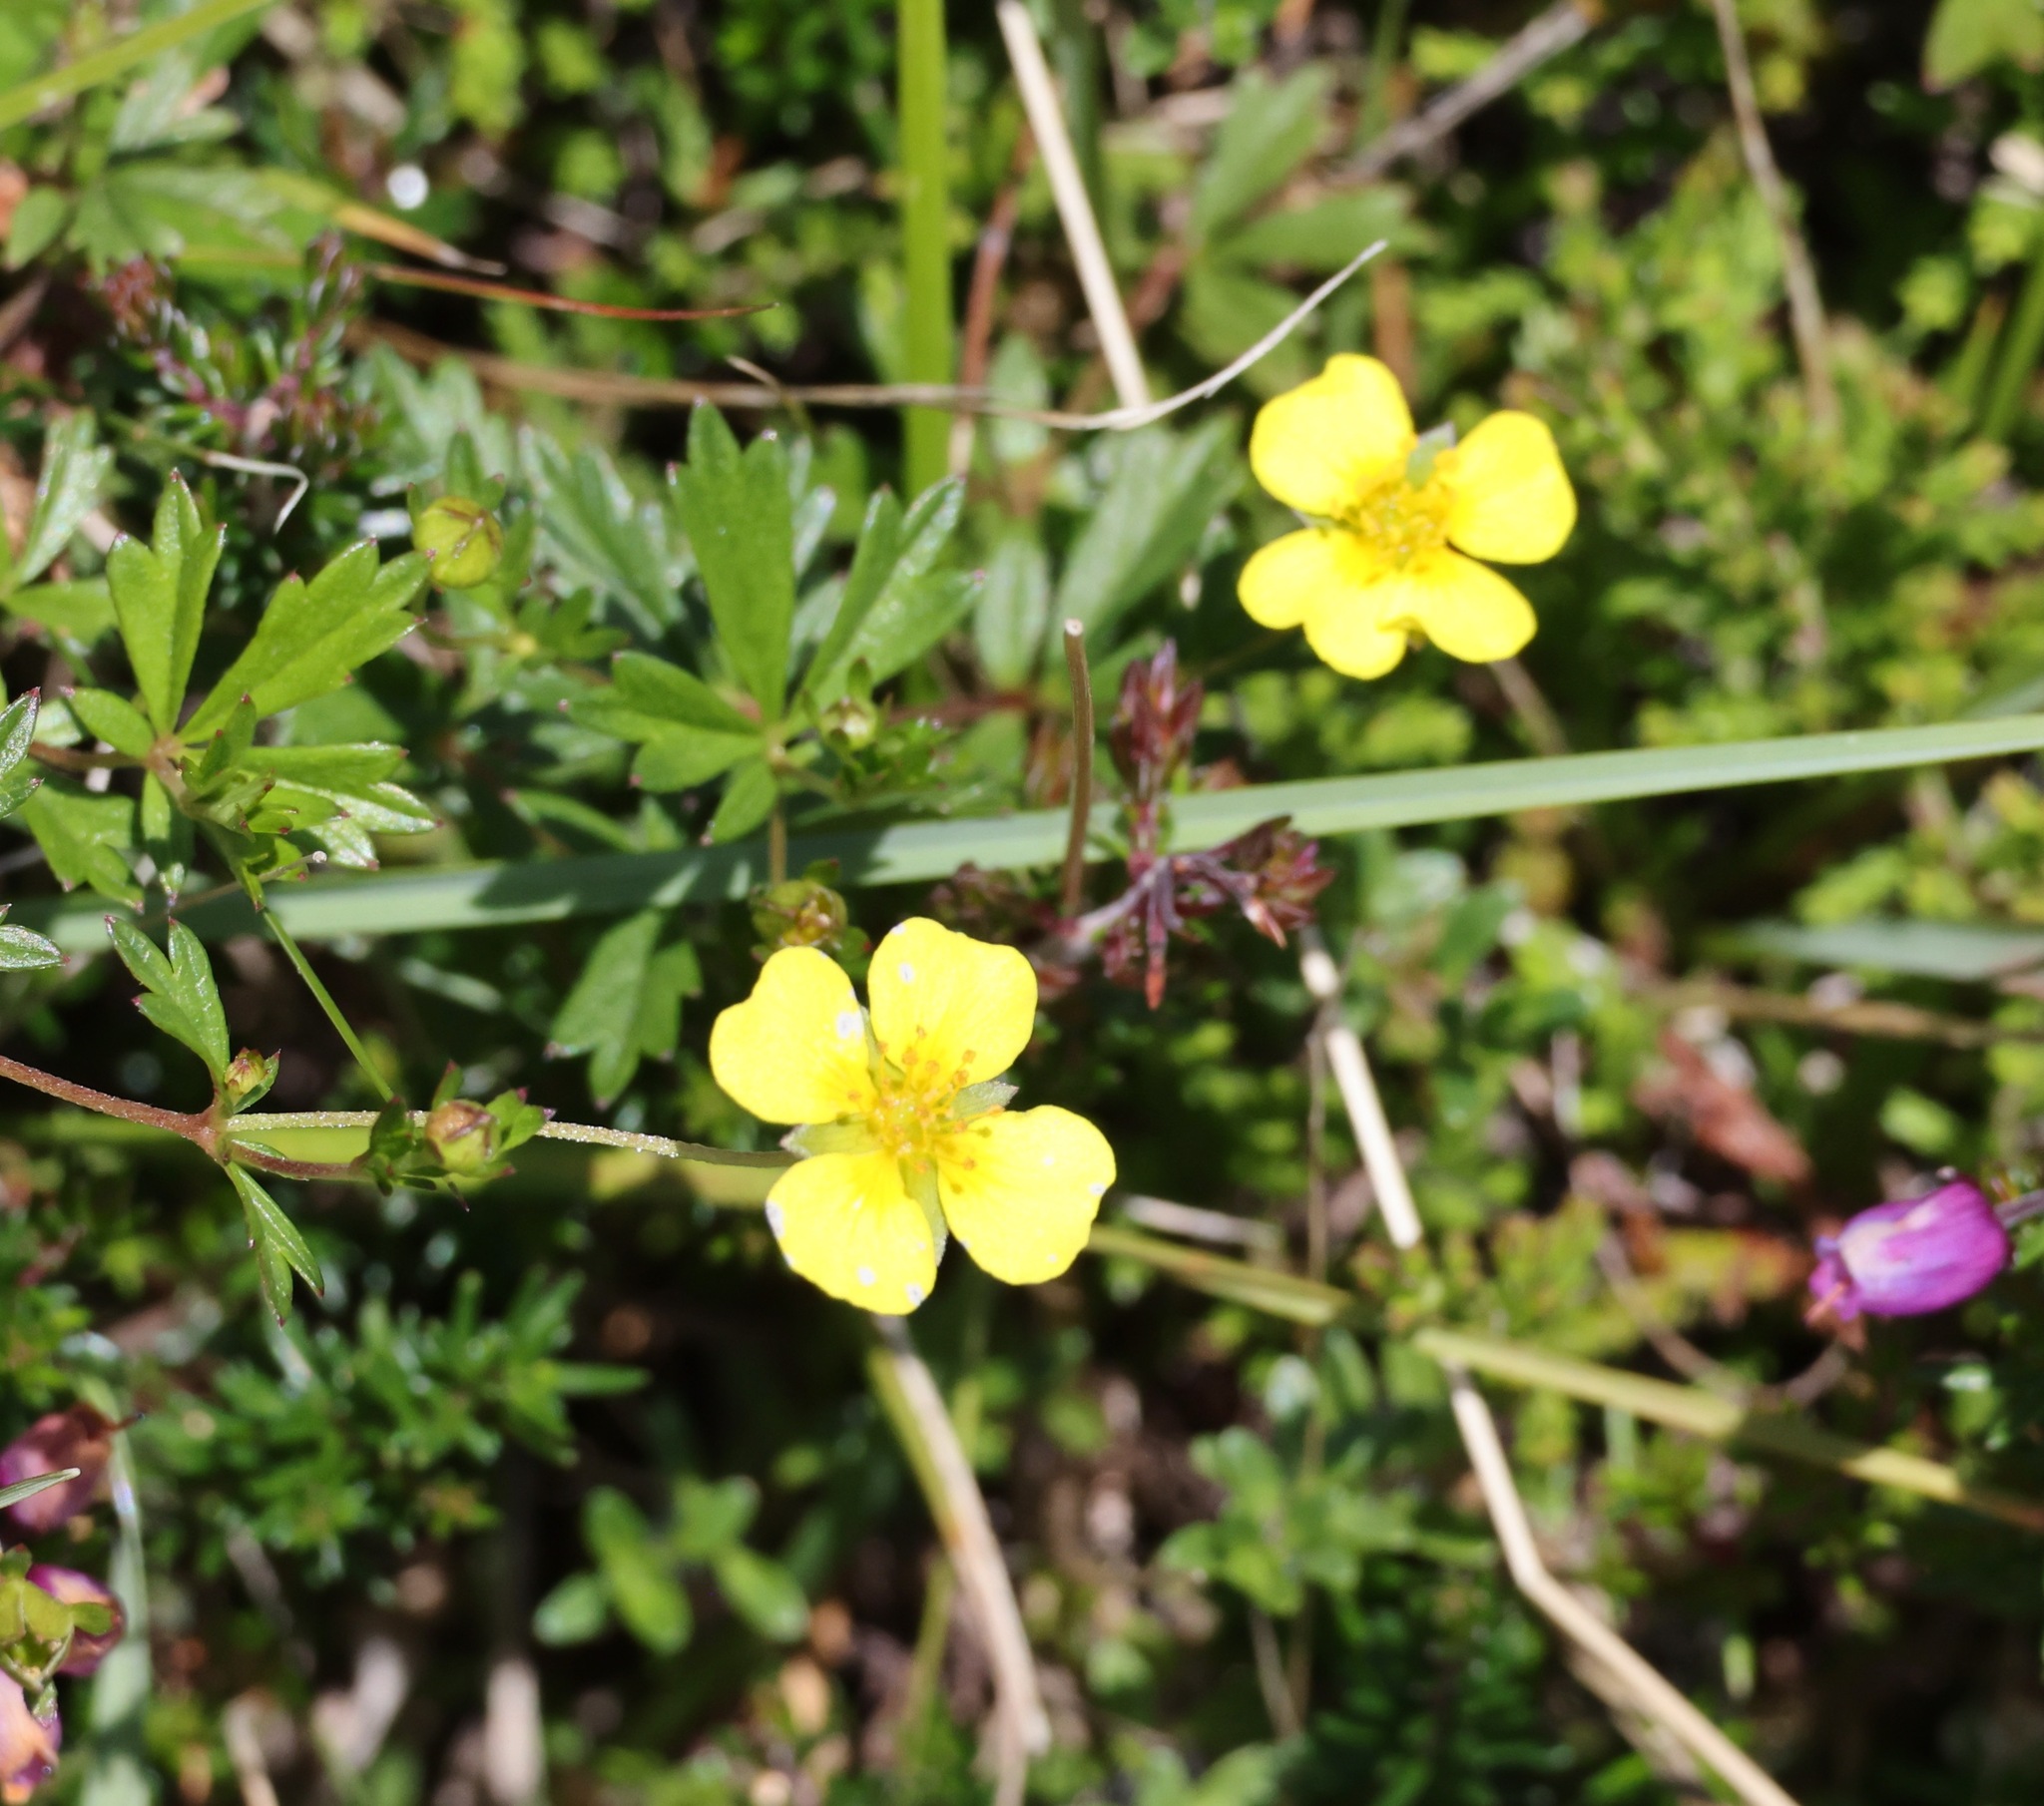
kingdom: Plantae
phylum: Tracheophyta
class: Magnoliopsida
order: Rosales
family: Rosaceae
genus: Potentilla
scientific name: Potentilla erecta
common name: Tormentil
